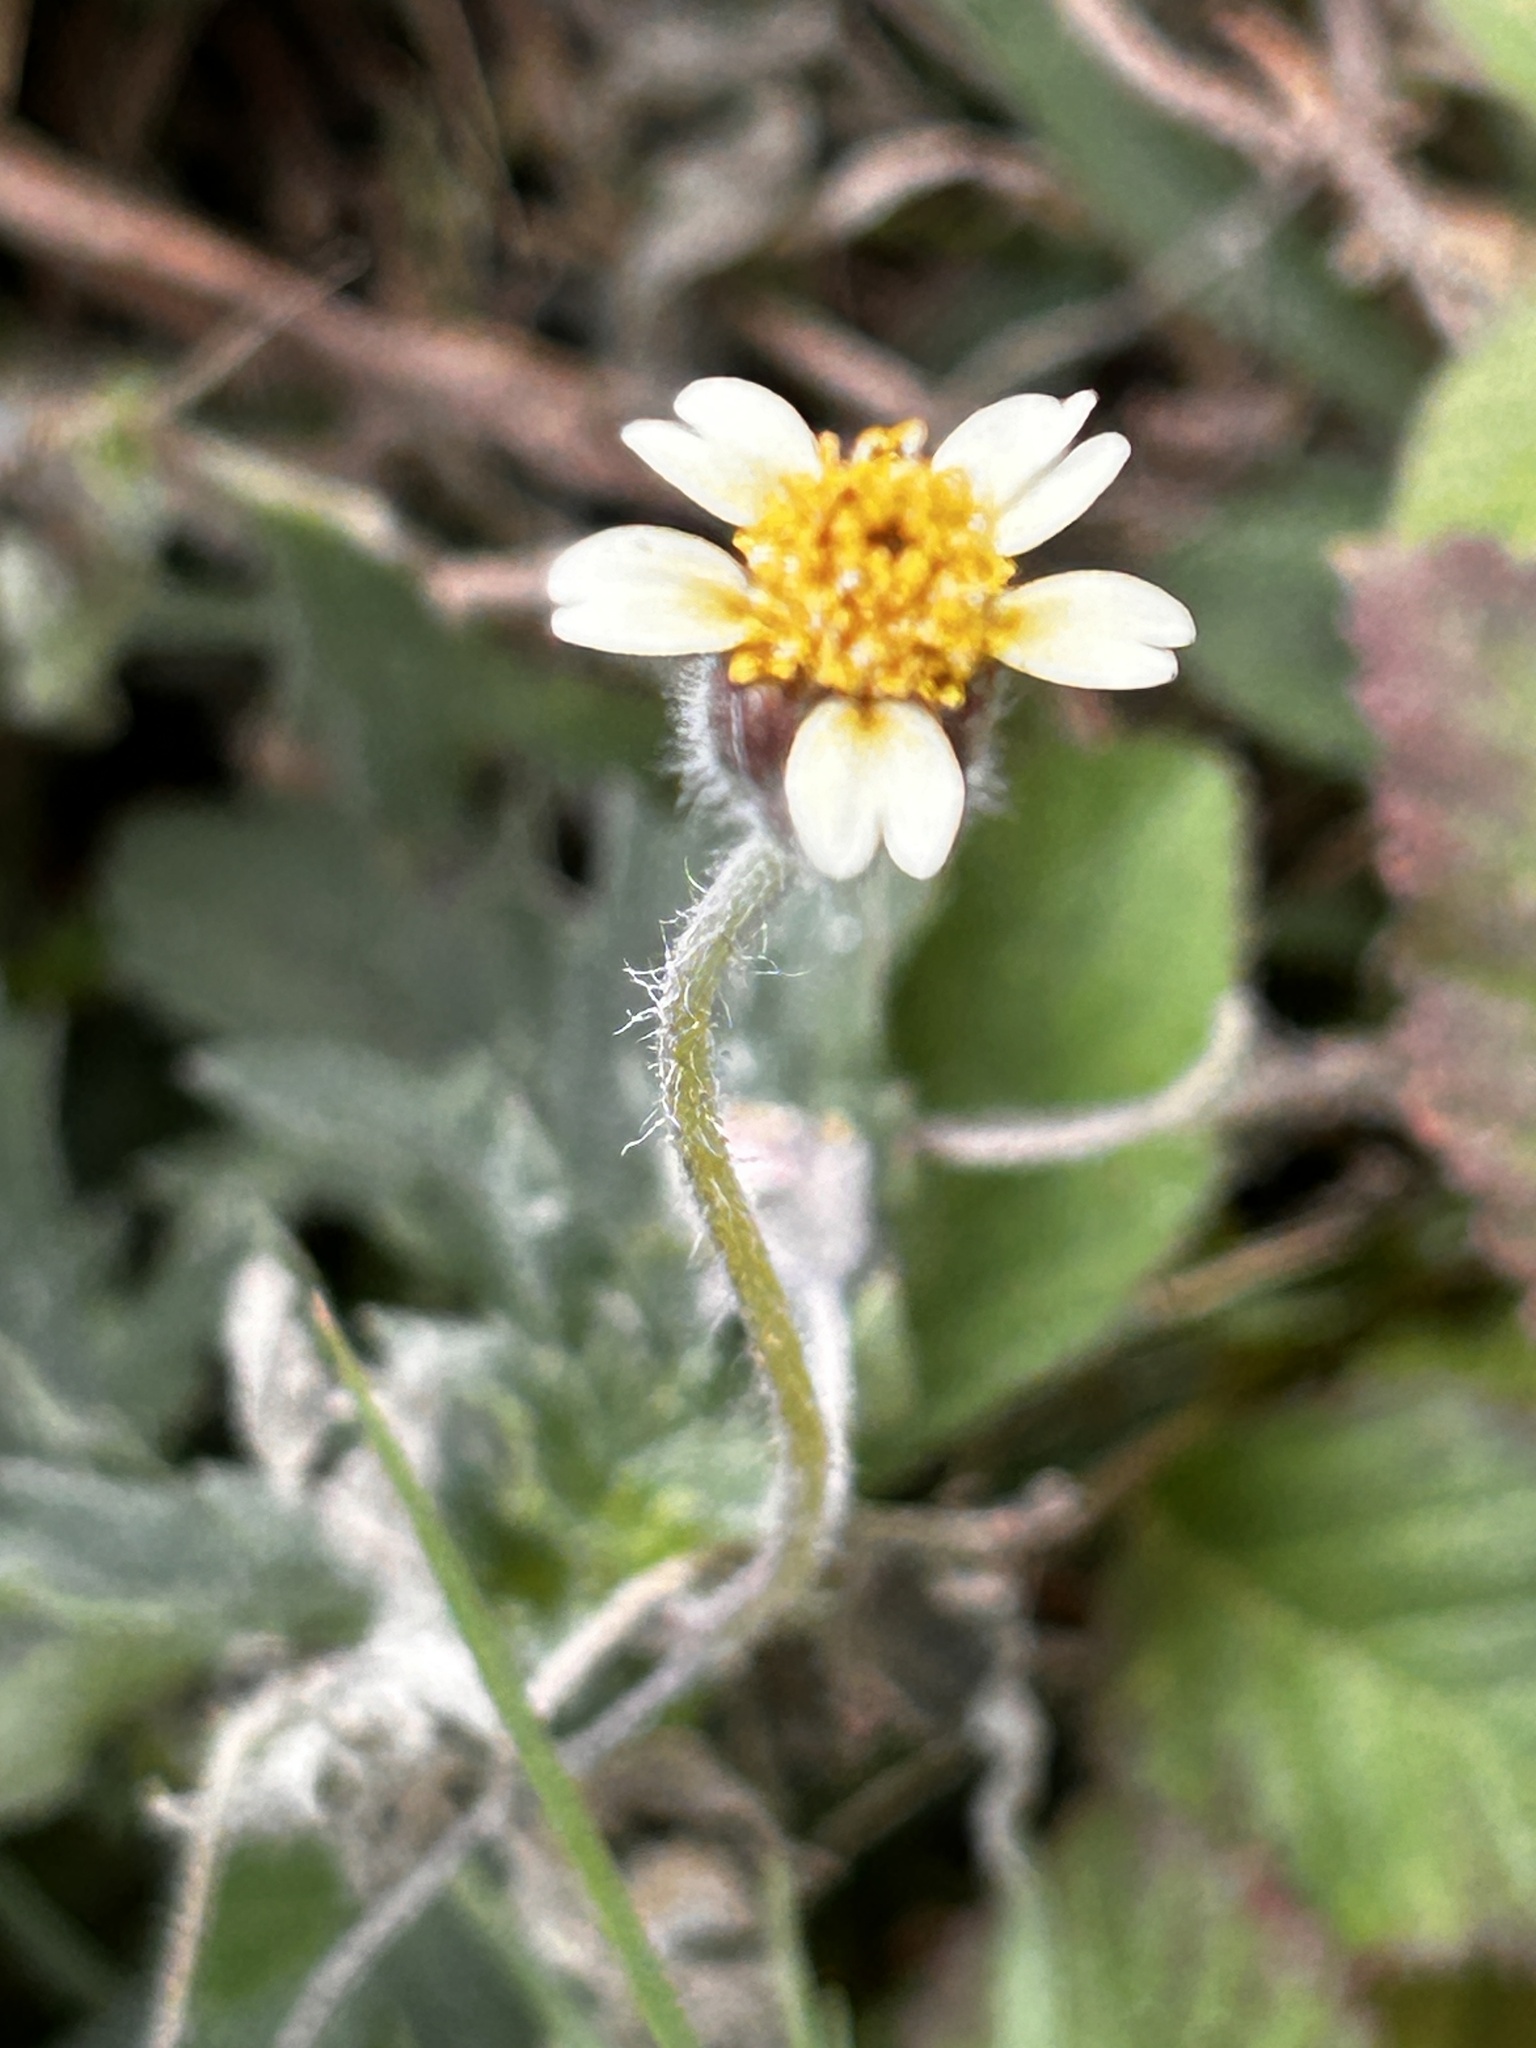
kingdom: Plantae
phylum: Tracheophyta
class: Magnoliopsida
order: Asterales
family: Asteraceae
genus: Tridax
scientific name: Tridax procumbens
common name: Coatbuttons
